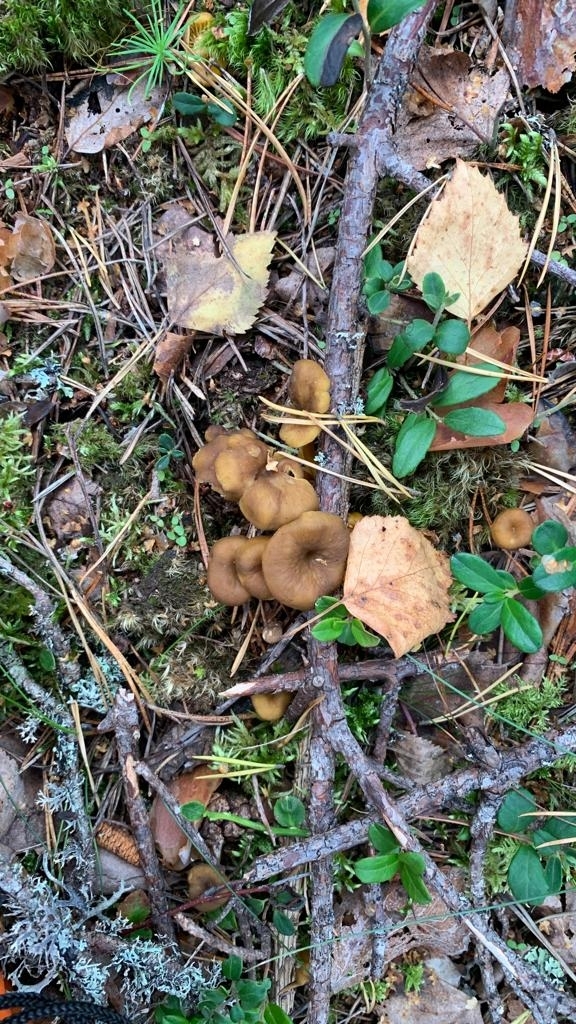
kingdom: Fungi
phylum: Basidiomycota
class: Agaricomycetes
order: Cantharellales
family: Hydnaceae
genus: Craterellus
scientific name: Craterellus tubaeformis
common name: Yellowfoot
